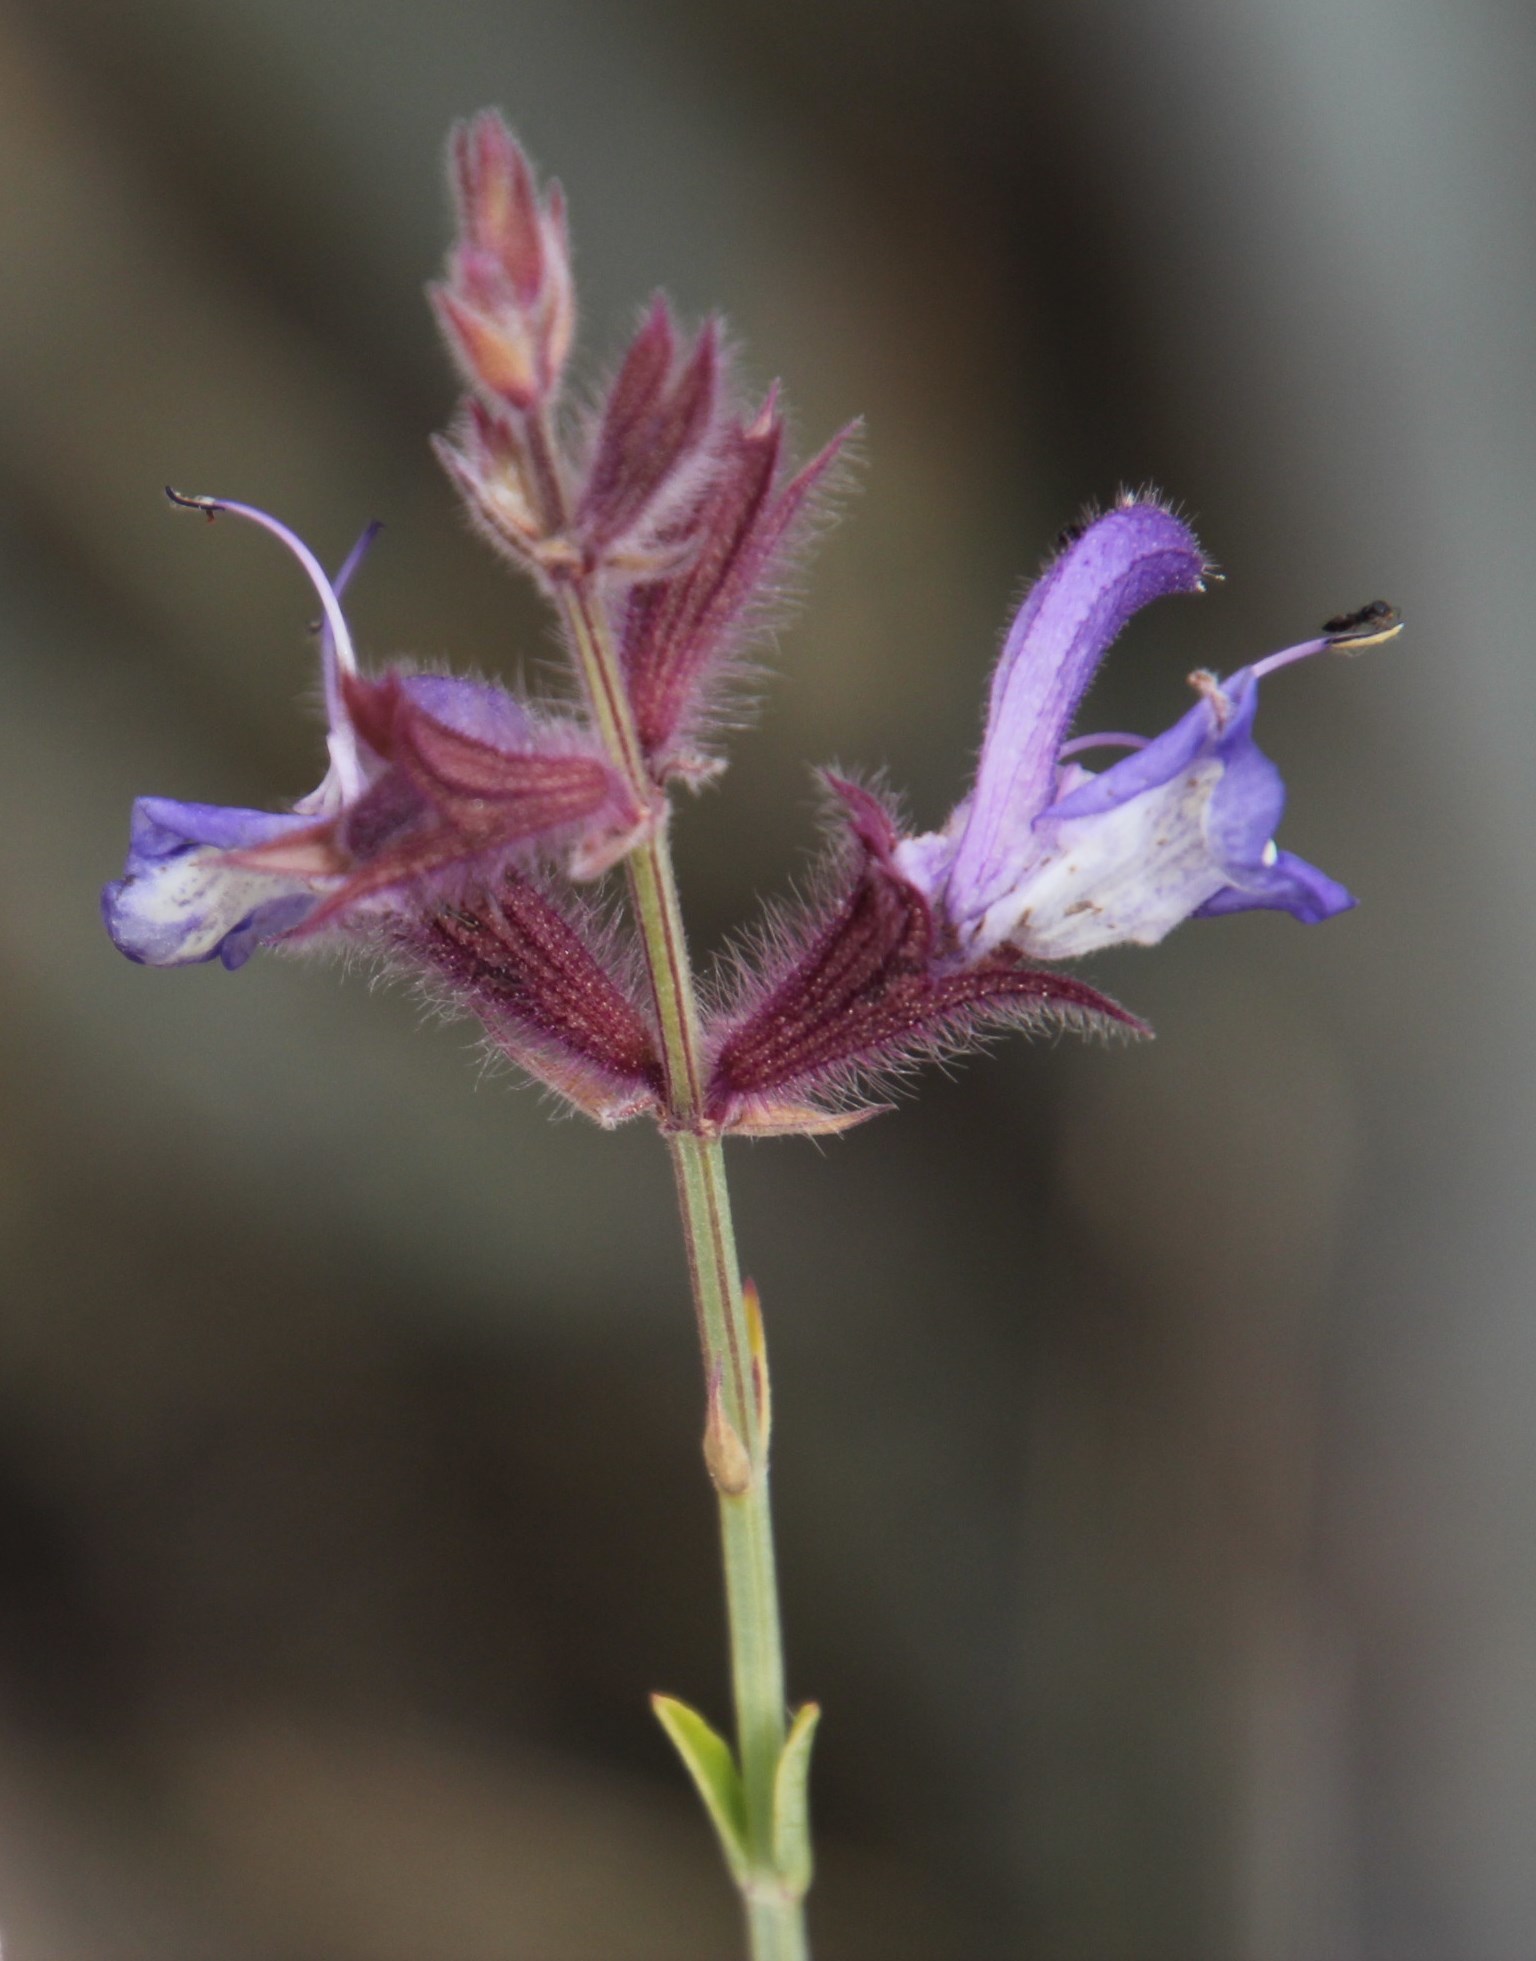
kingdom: Plantae
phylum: Tracheophyta
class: Magnoliopsida
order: Lamiales
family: Lamiaceae
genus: Salvia
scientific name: Salvia albicaulis
